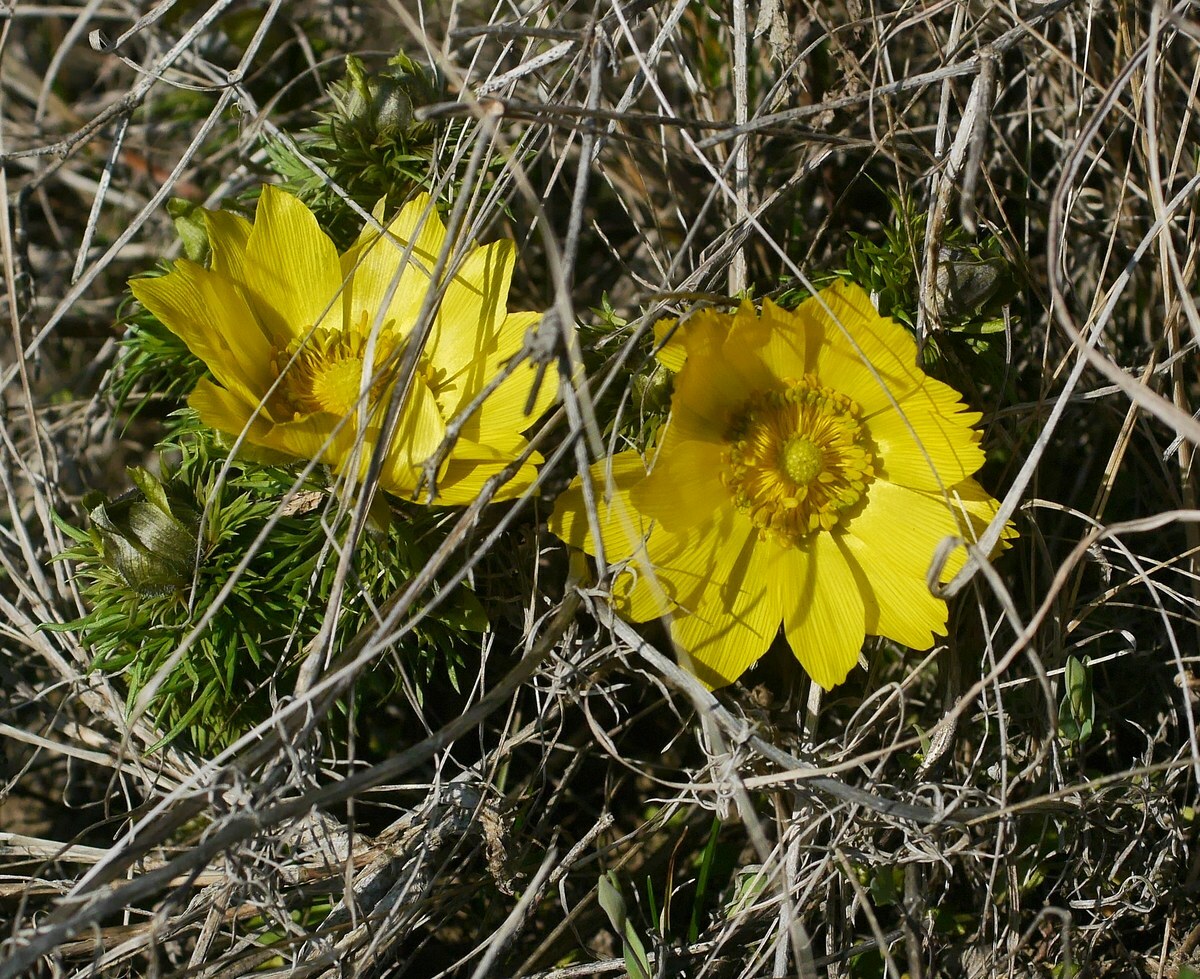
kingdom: Plantae
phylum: Tracheophyta
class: Magnoliopsida
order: Ranunculales
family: Ranunculaceae
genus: Adonis
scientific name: Adonis vernalis
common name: Yellow pheasants-eye
